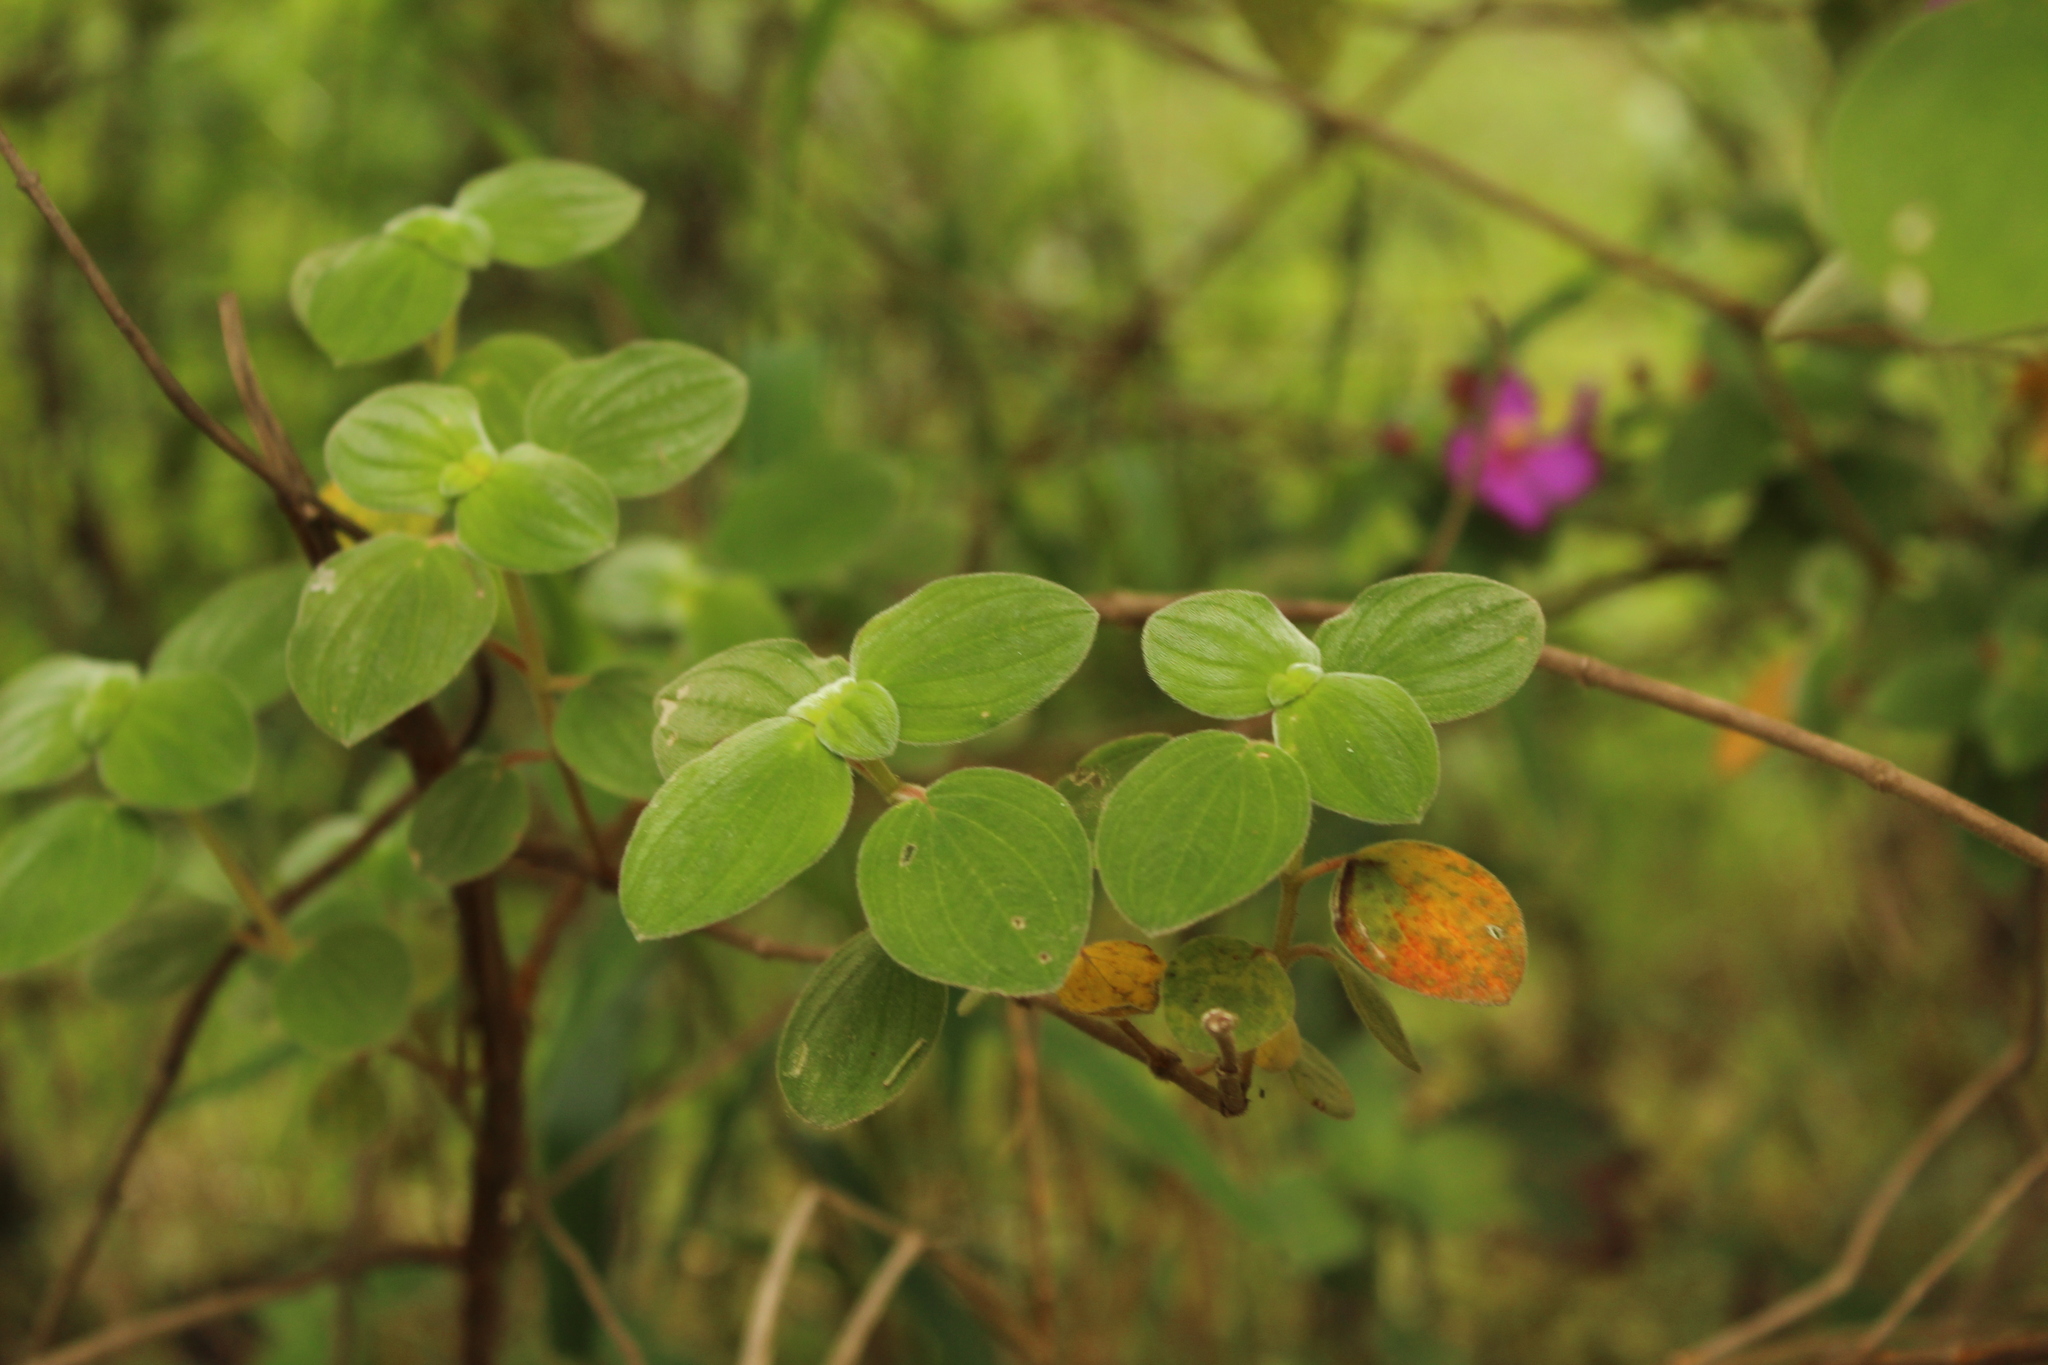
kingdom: Plantae
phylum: Tracheophyta
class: Magnoliopsida
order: Myrtales
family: Melastomataceae
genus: Monochaetum
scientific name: Monochaetum bonplandii
